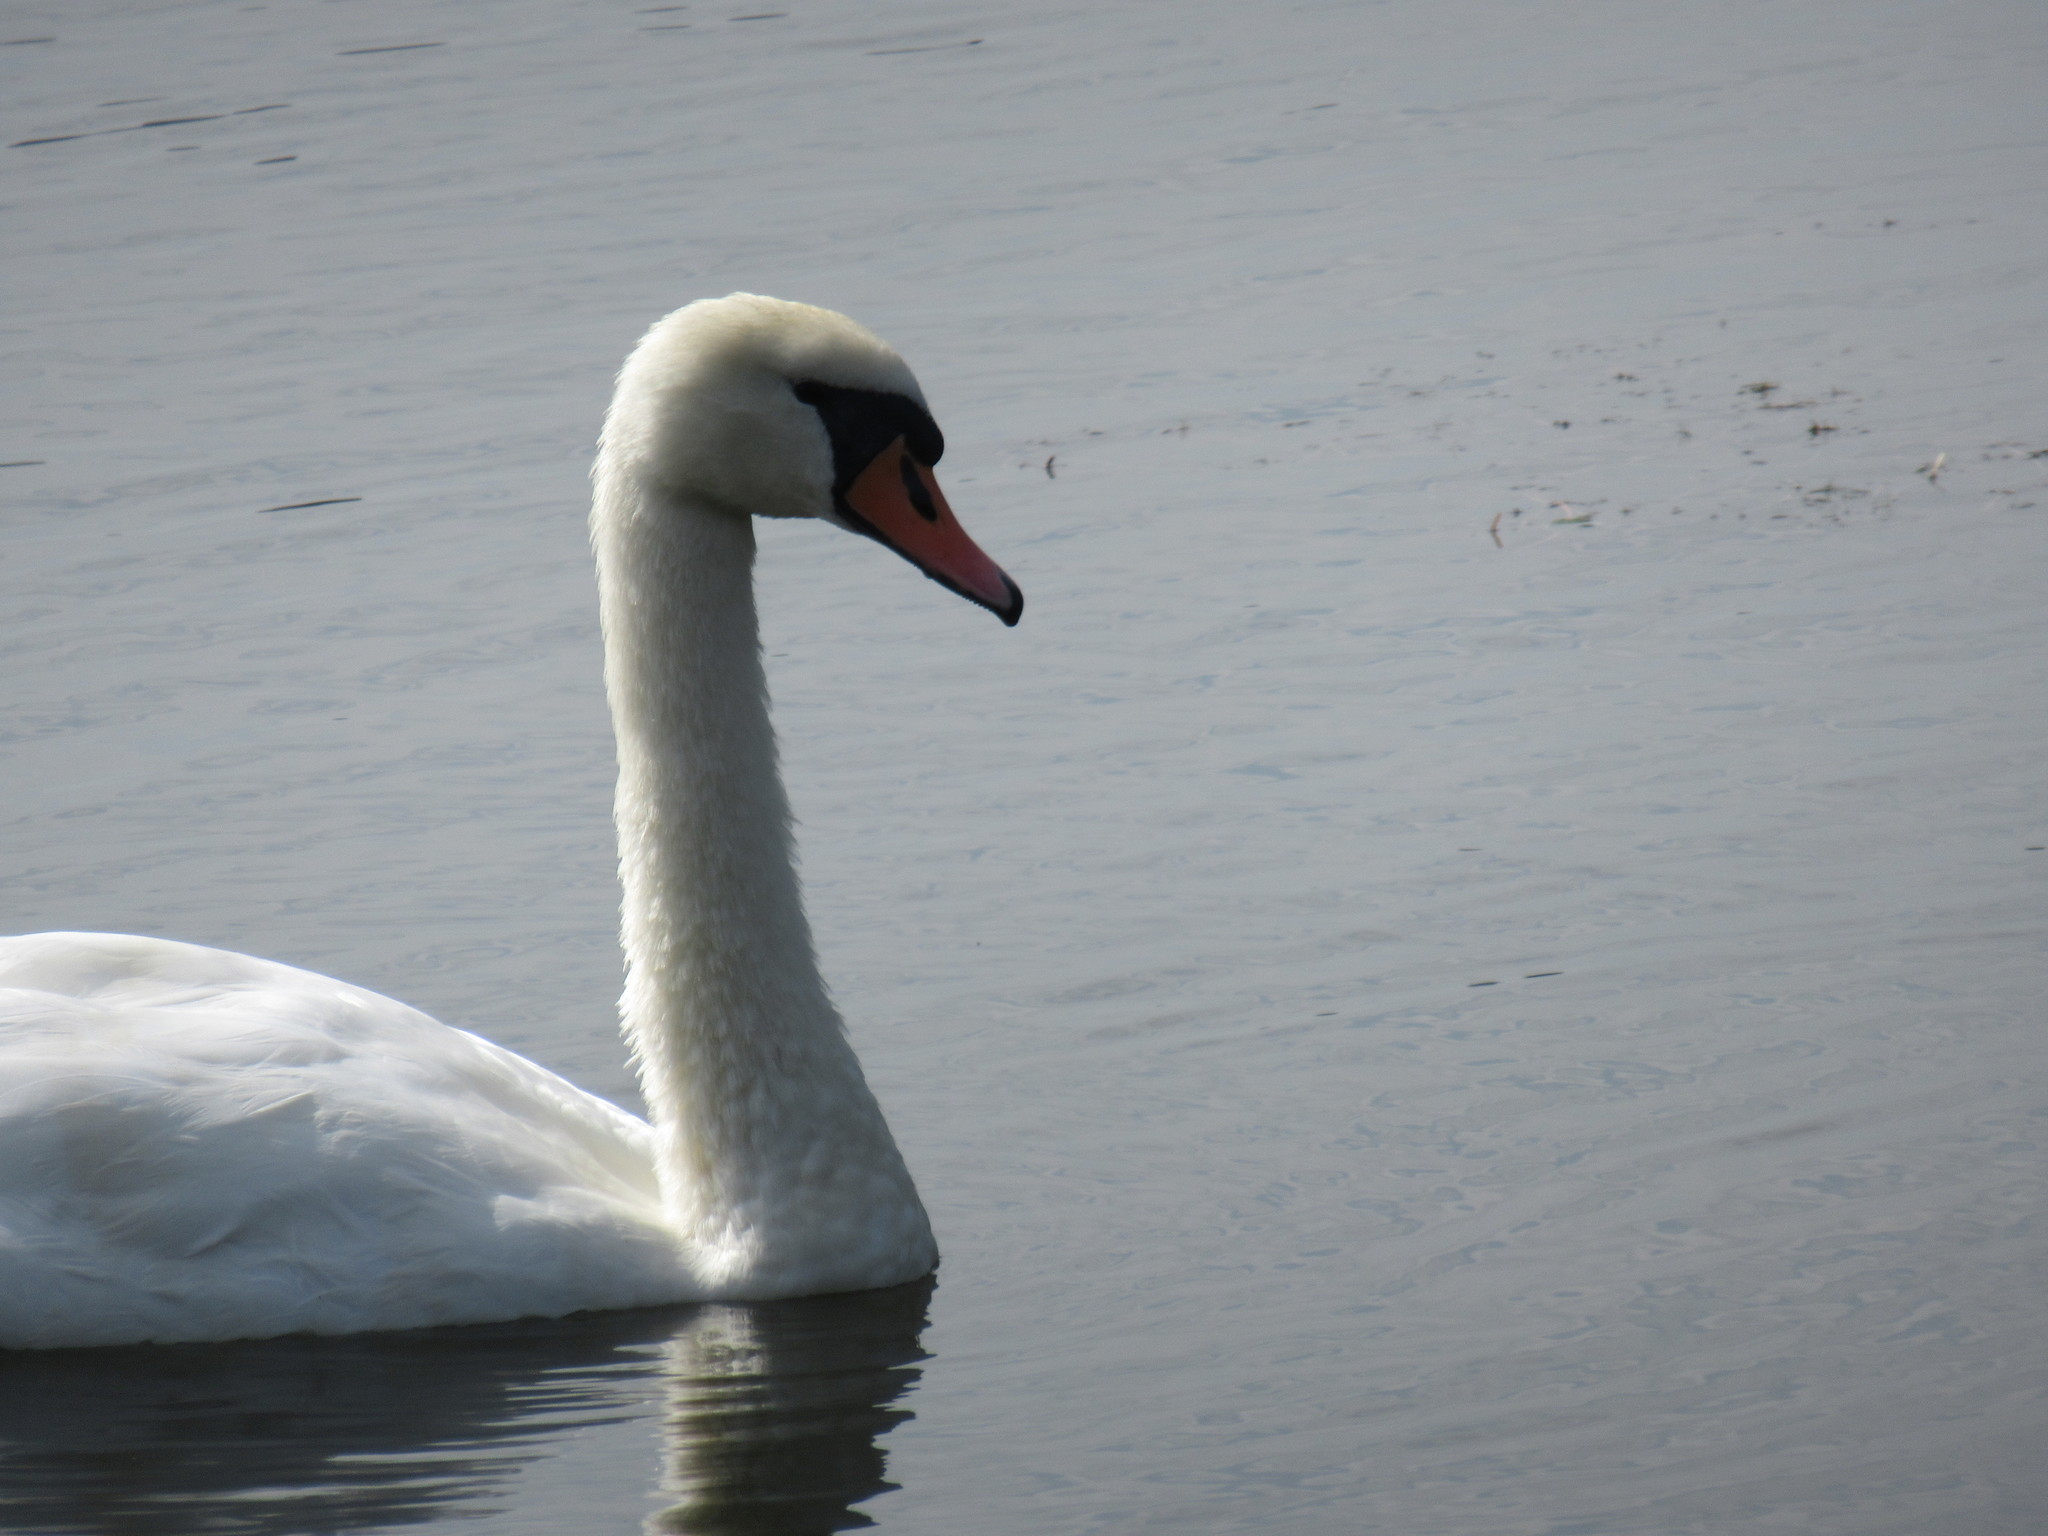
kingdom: Animalia
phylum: Chordata
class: Aves
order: Anseriformes
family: Anatidae
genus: Cygnus
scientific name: Cygnus olor
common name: Mute swan
